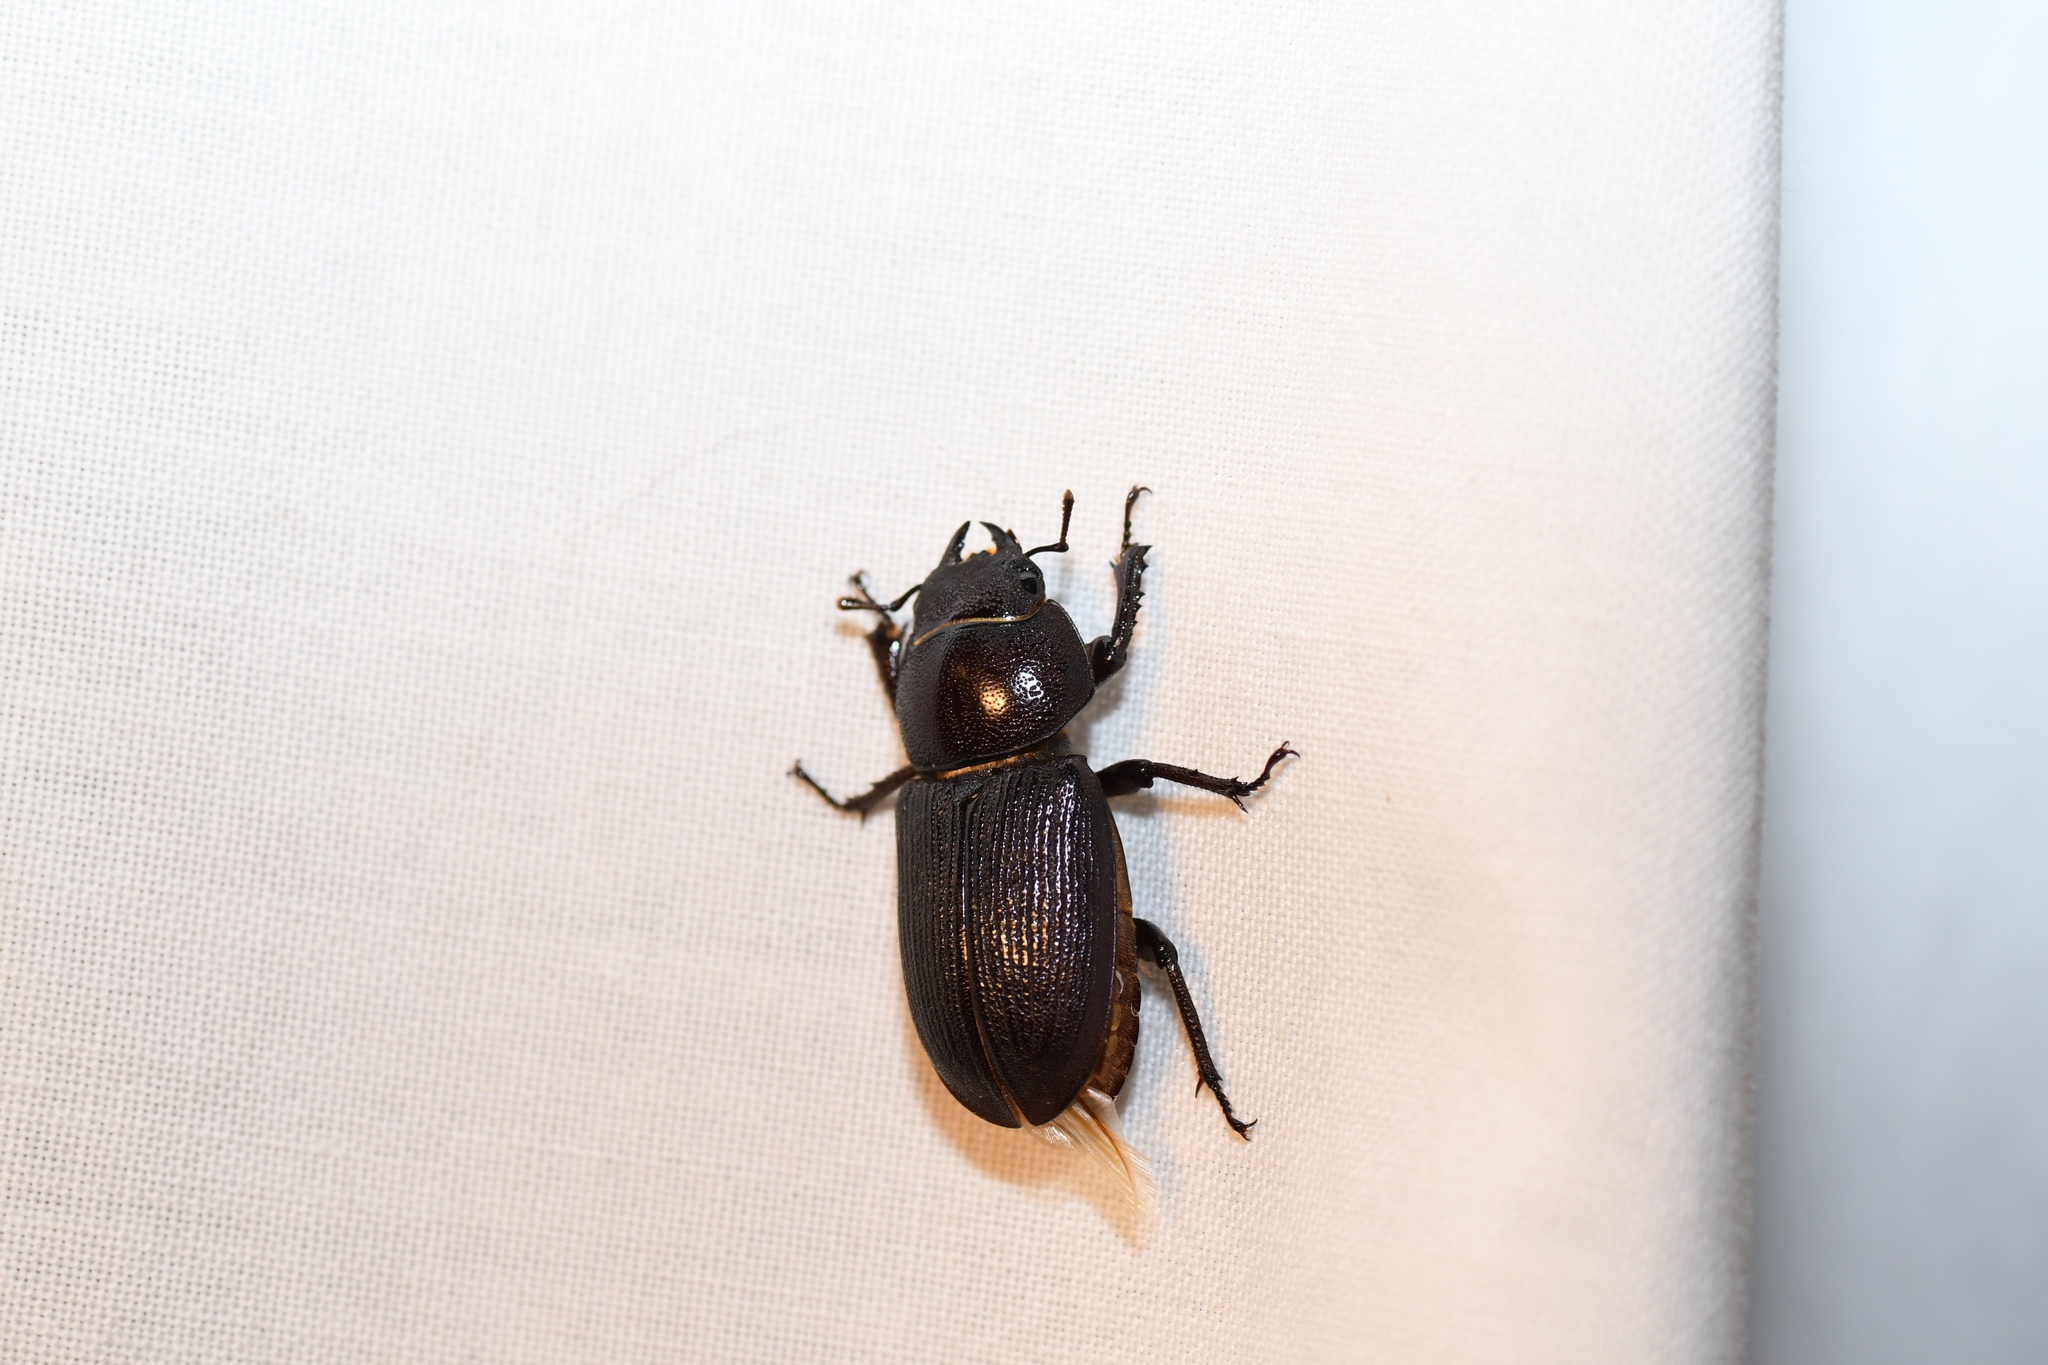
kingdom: Animalia
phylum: Arthropoda
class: Insecta
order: Coleoptera
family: Lucanidae
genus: Dorcus
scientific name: Dorcus parallelus
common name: Antelope beetle
